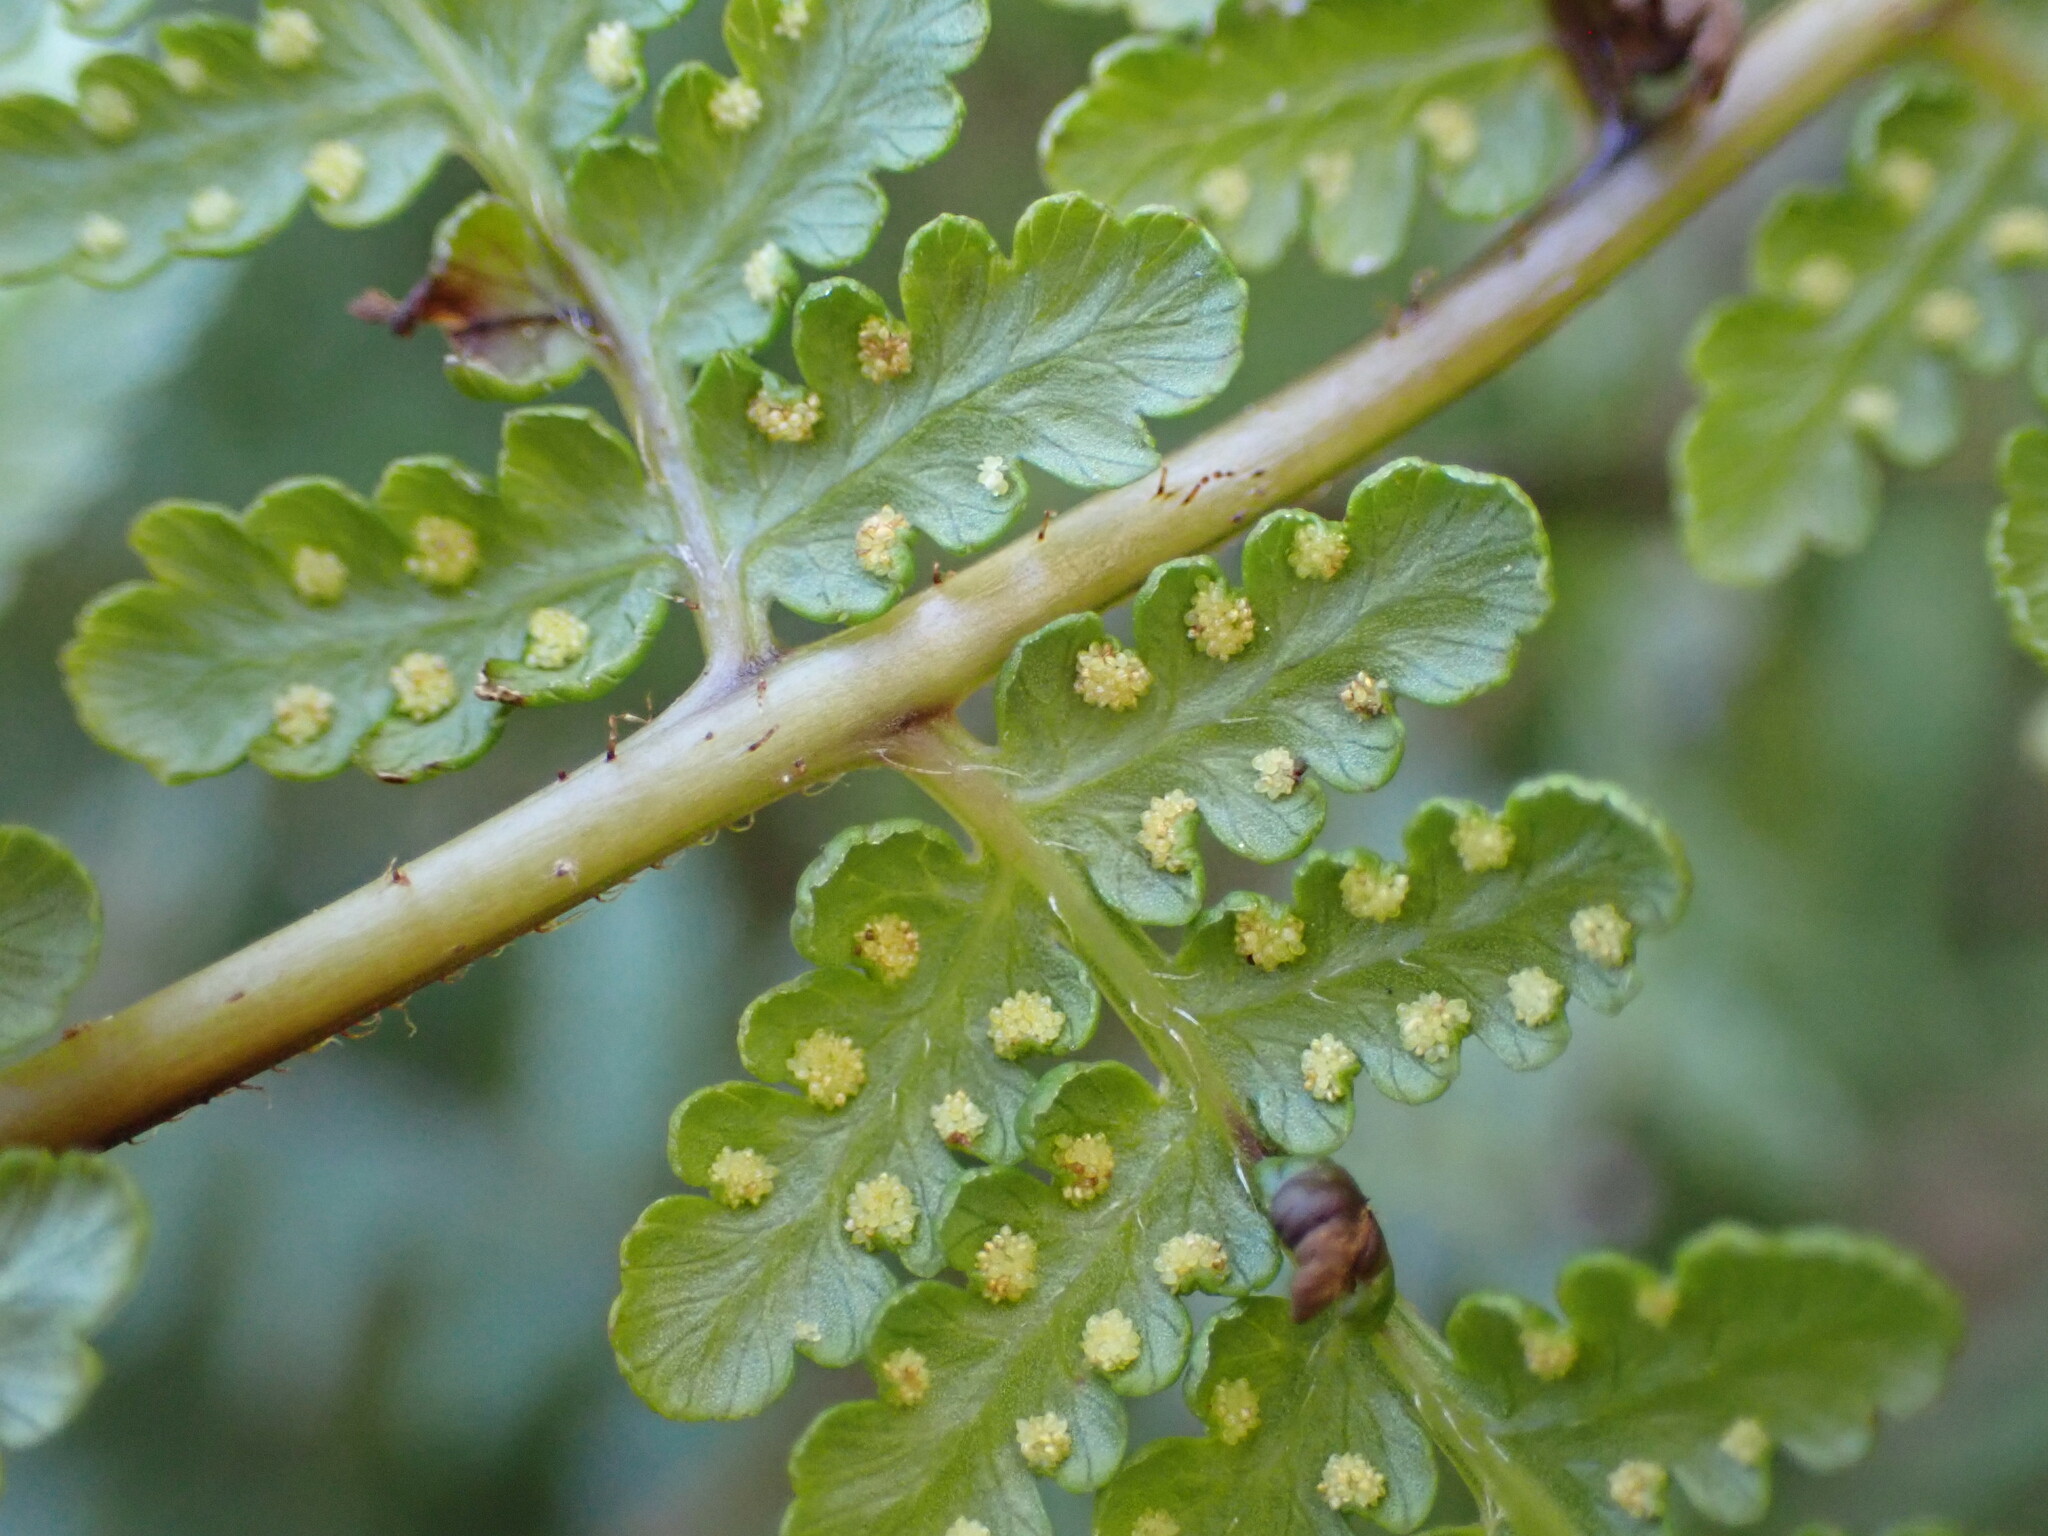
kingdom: Plantae
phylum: Tracheophyta
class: Polypodiopsida
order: Polypodiales
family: Dennstaedtiaceae
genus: Hypolepis
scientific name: Hypolepis ambigua
